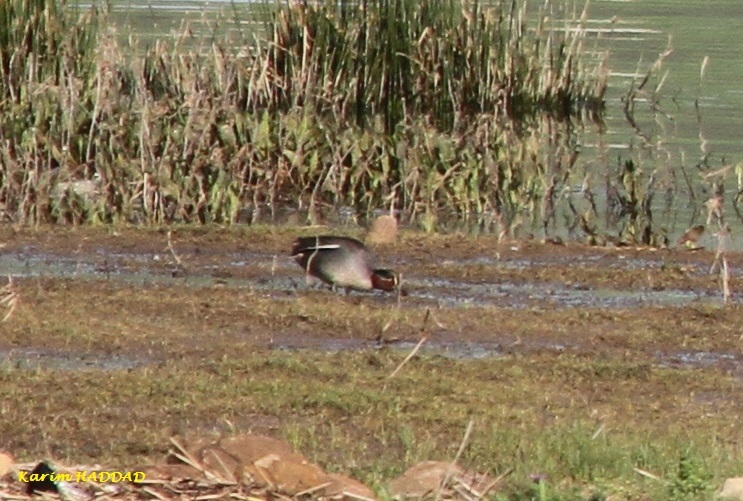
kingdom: Animalia
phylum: Chordata
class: Aves
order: Anseriformes
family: Anatidae
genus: Anas
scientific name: Anas crecca
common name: Eurasian teal
